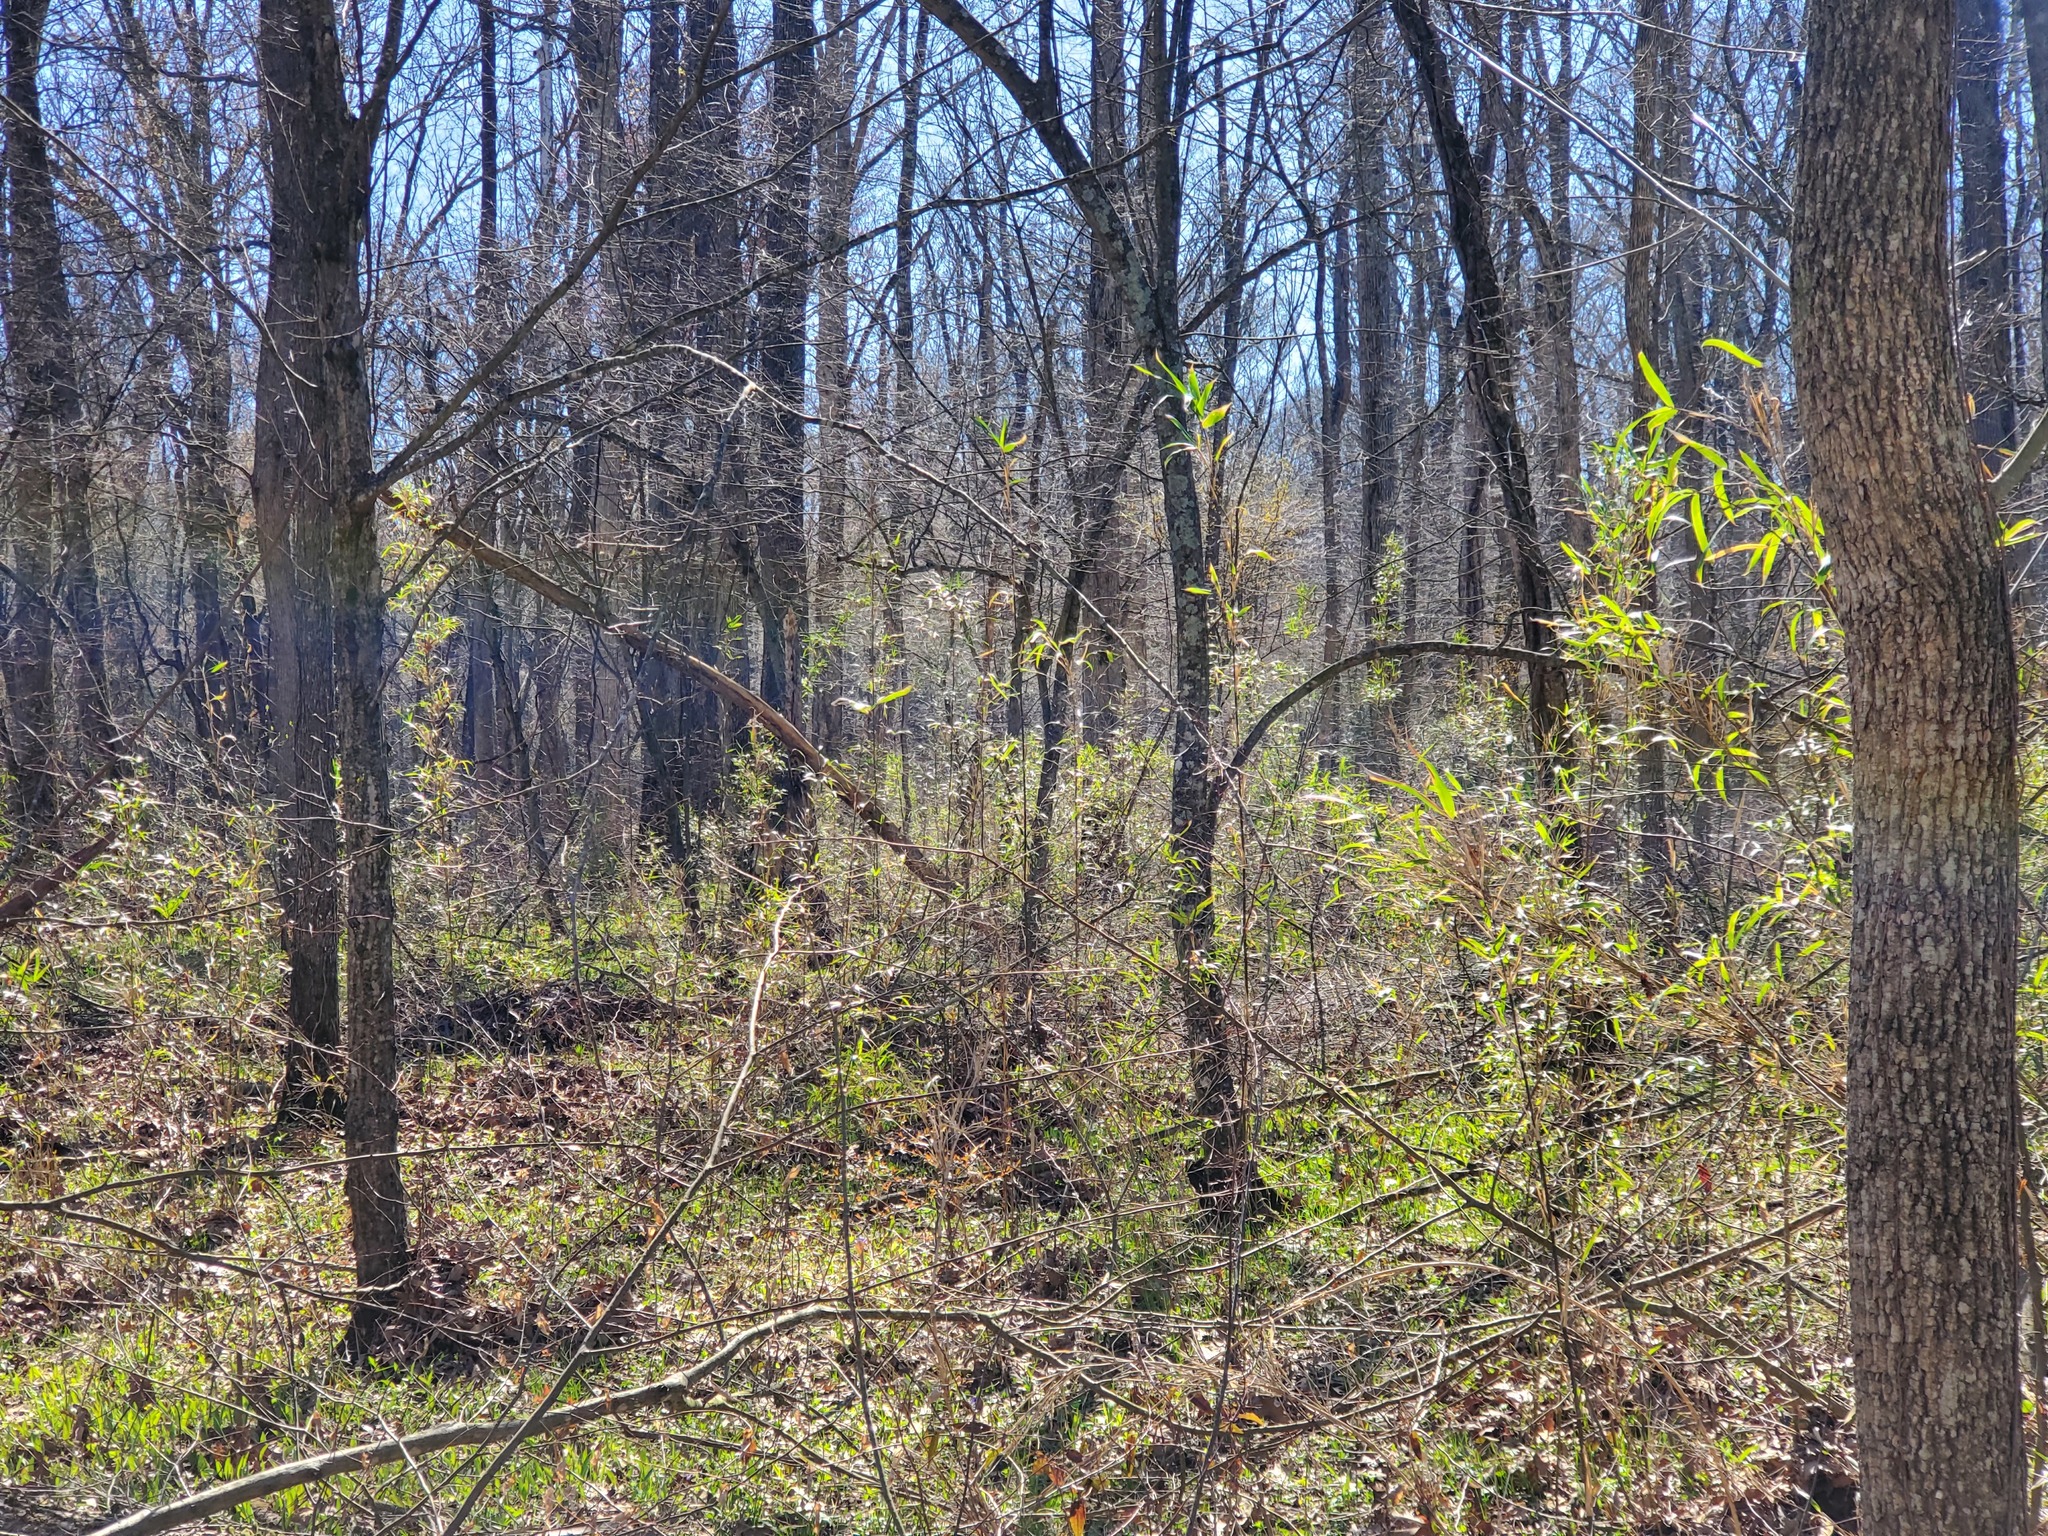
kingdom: Plantae
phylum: Tracheophyta
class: Liliopsida
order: Poales
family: Poaceae
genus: Arundinaria
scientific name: Arundinaria gigantea
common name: Giant cane
